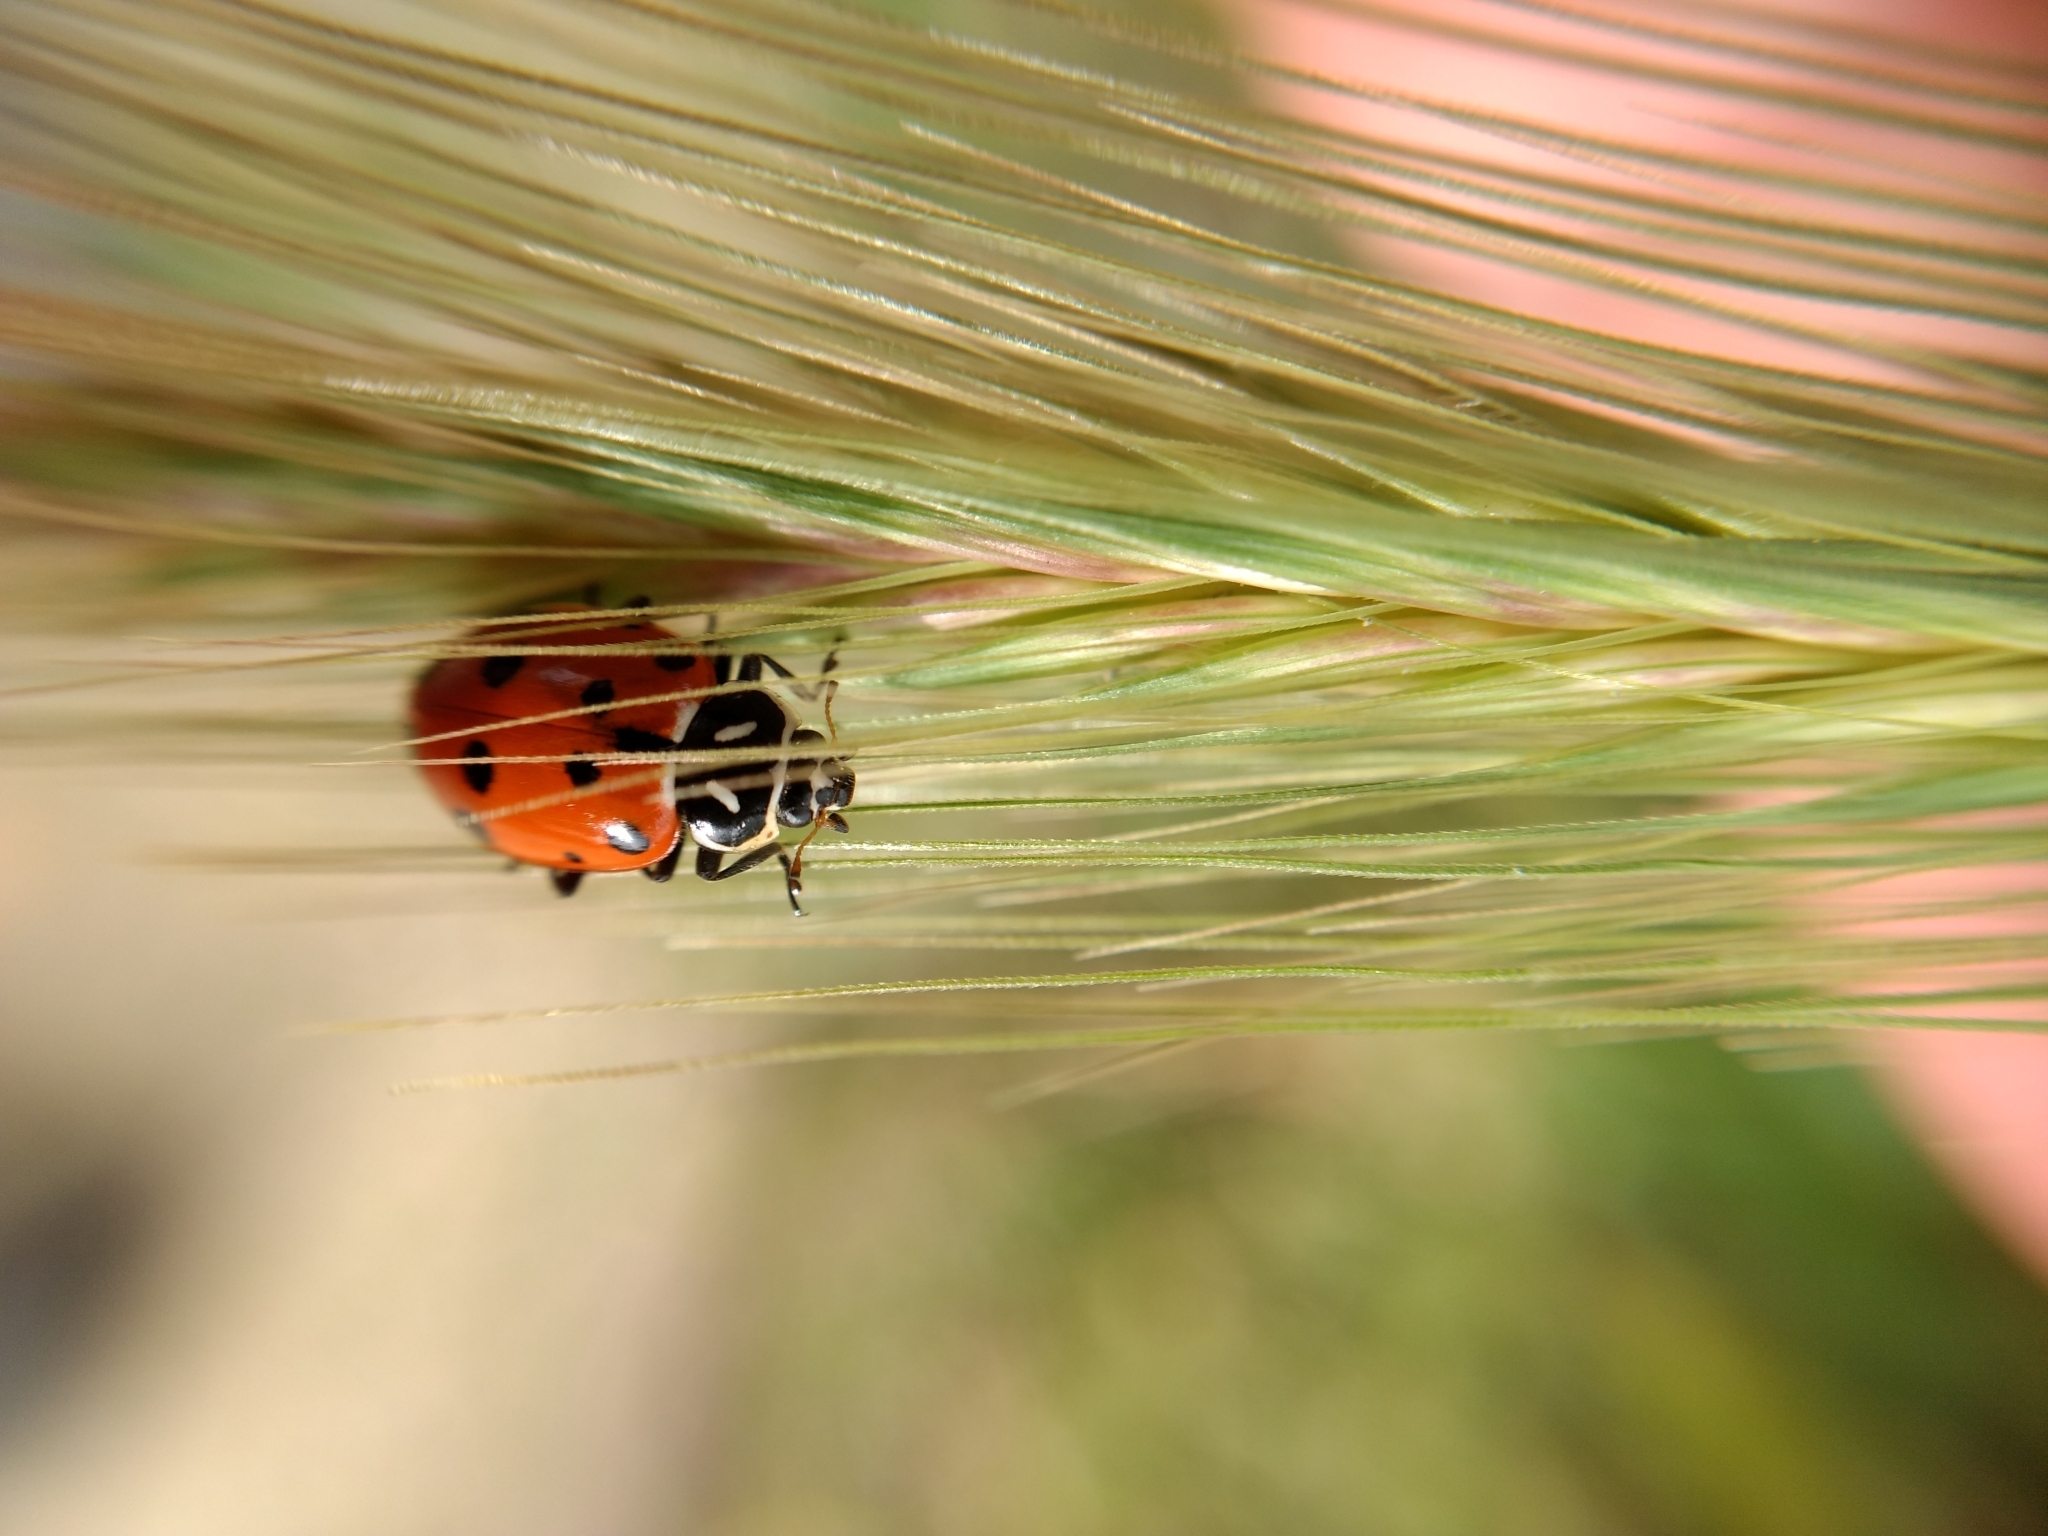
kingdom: Animalia
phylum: Arthropoda
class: Insecta
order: Coleoptera
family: Coccinellidae
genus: Hippodamia
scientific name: Hippodamia convergens
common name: Convergent lady beetle
